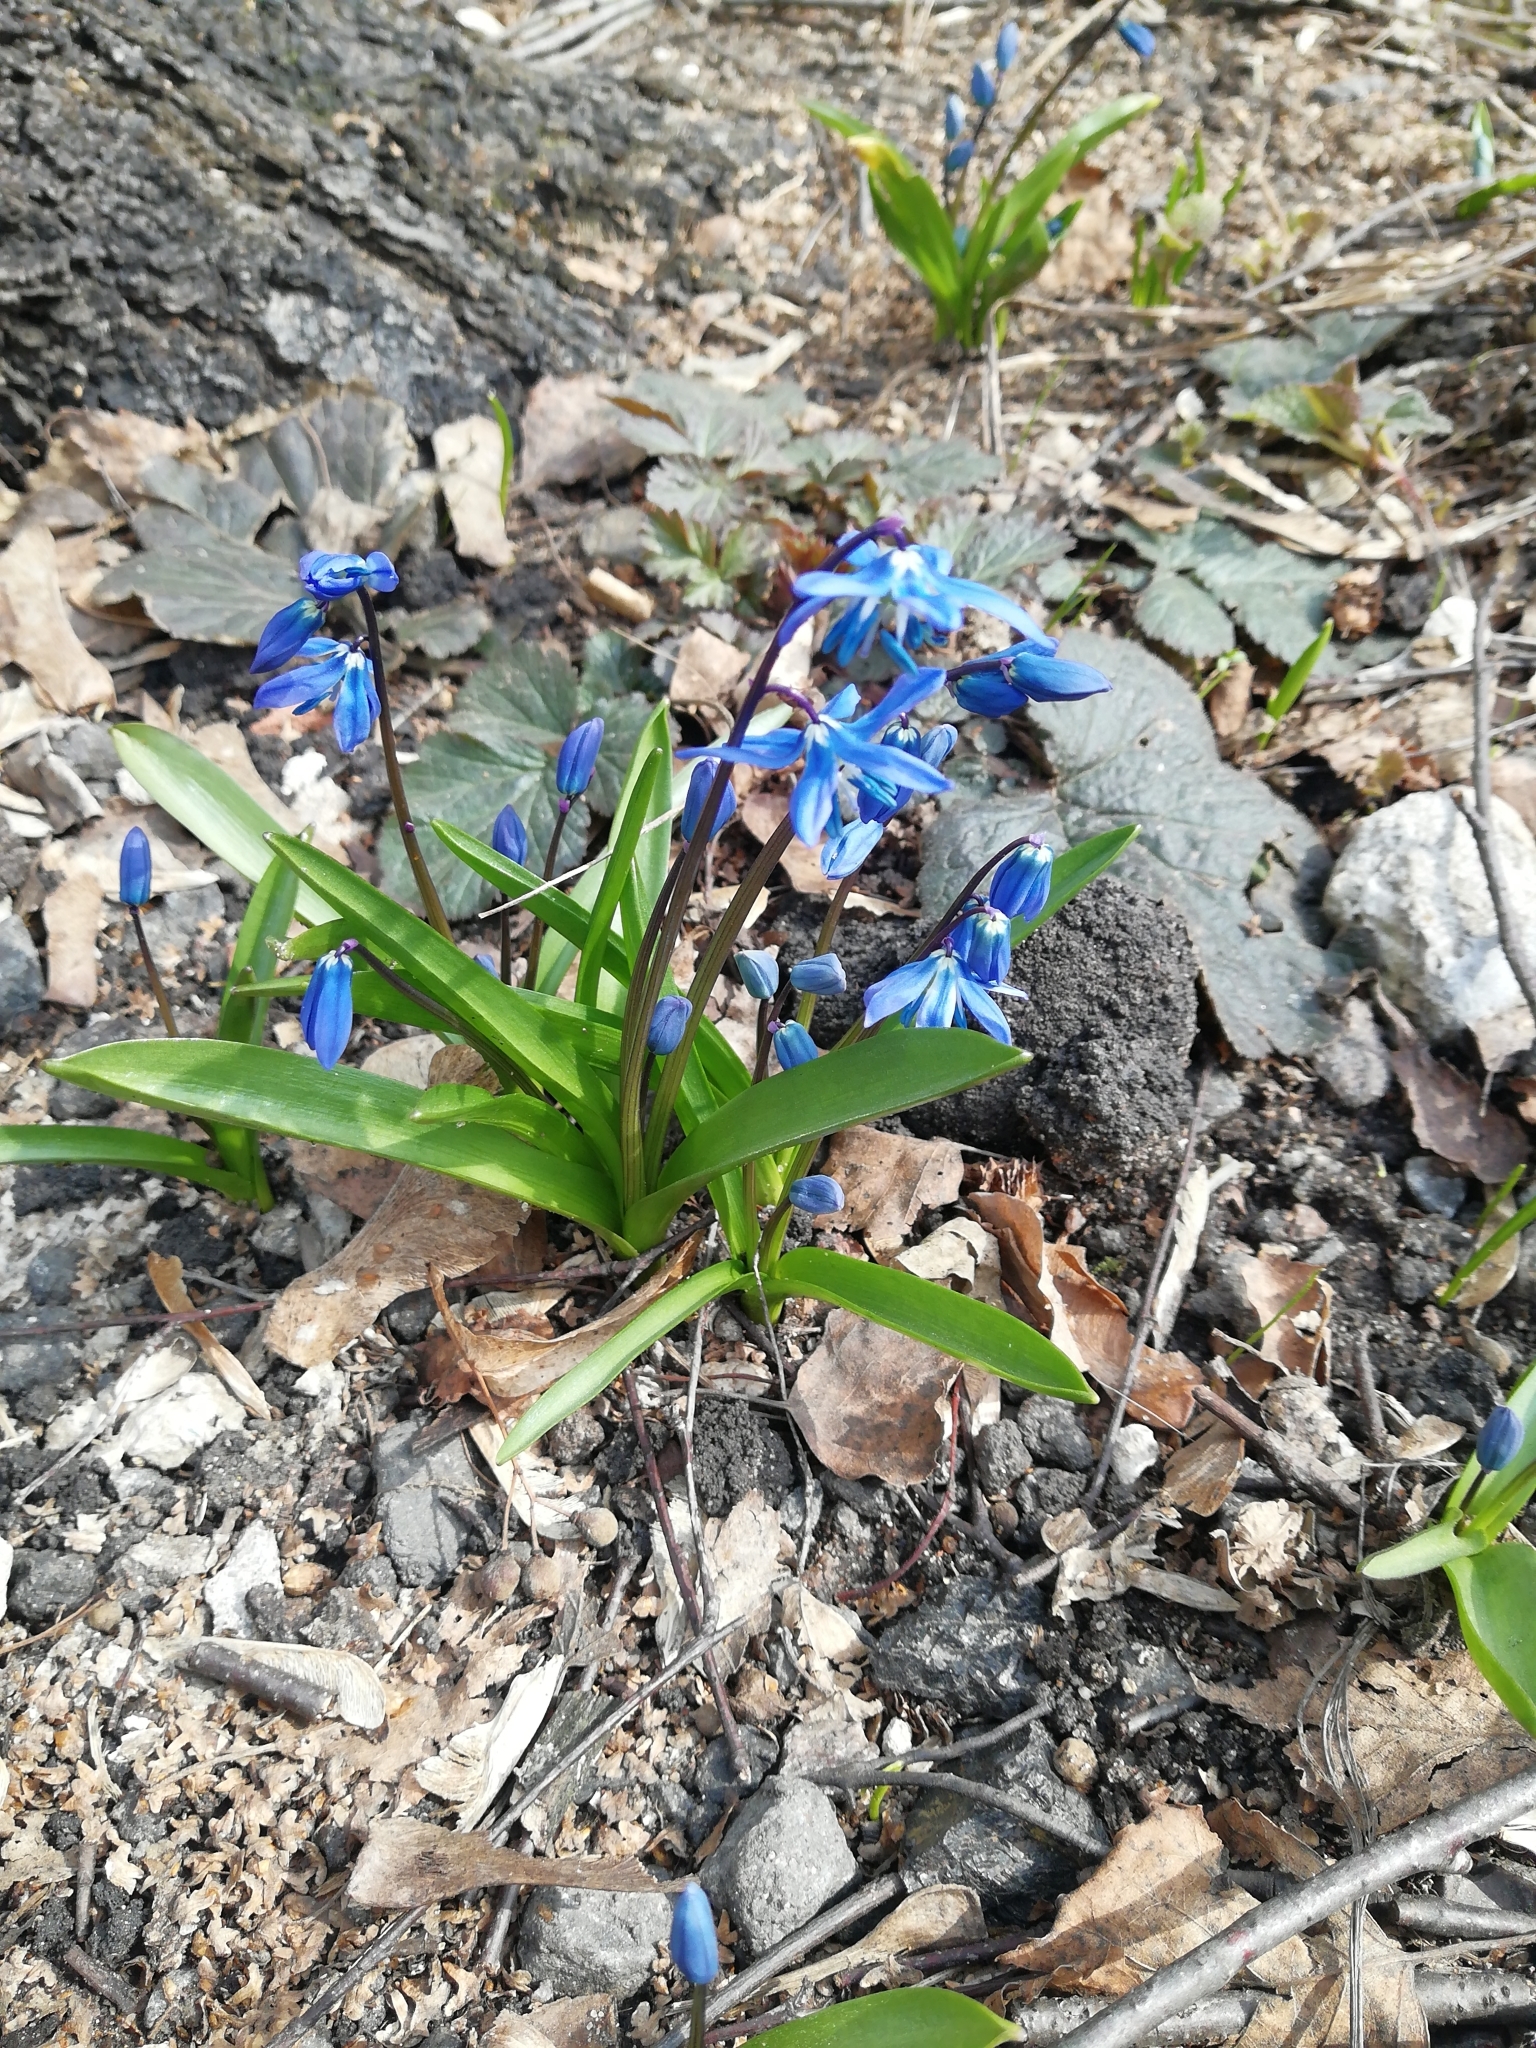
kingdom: Plantae
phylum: Tracheophyta
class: Liliopsida
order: Asparagales
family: Asparagaceae
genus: Scilla
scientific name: Scilla siberica
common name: Siberian squill
